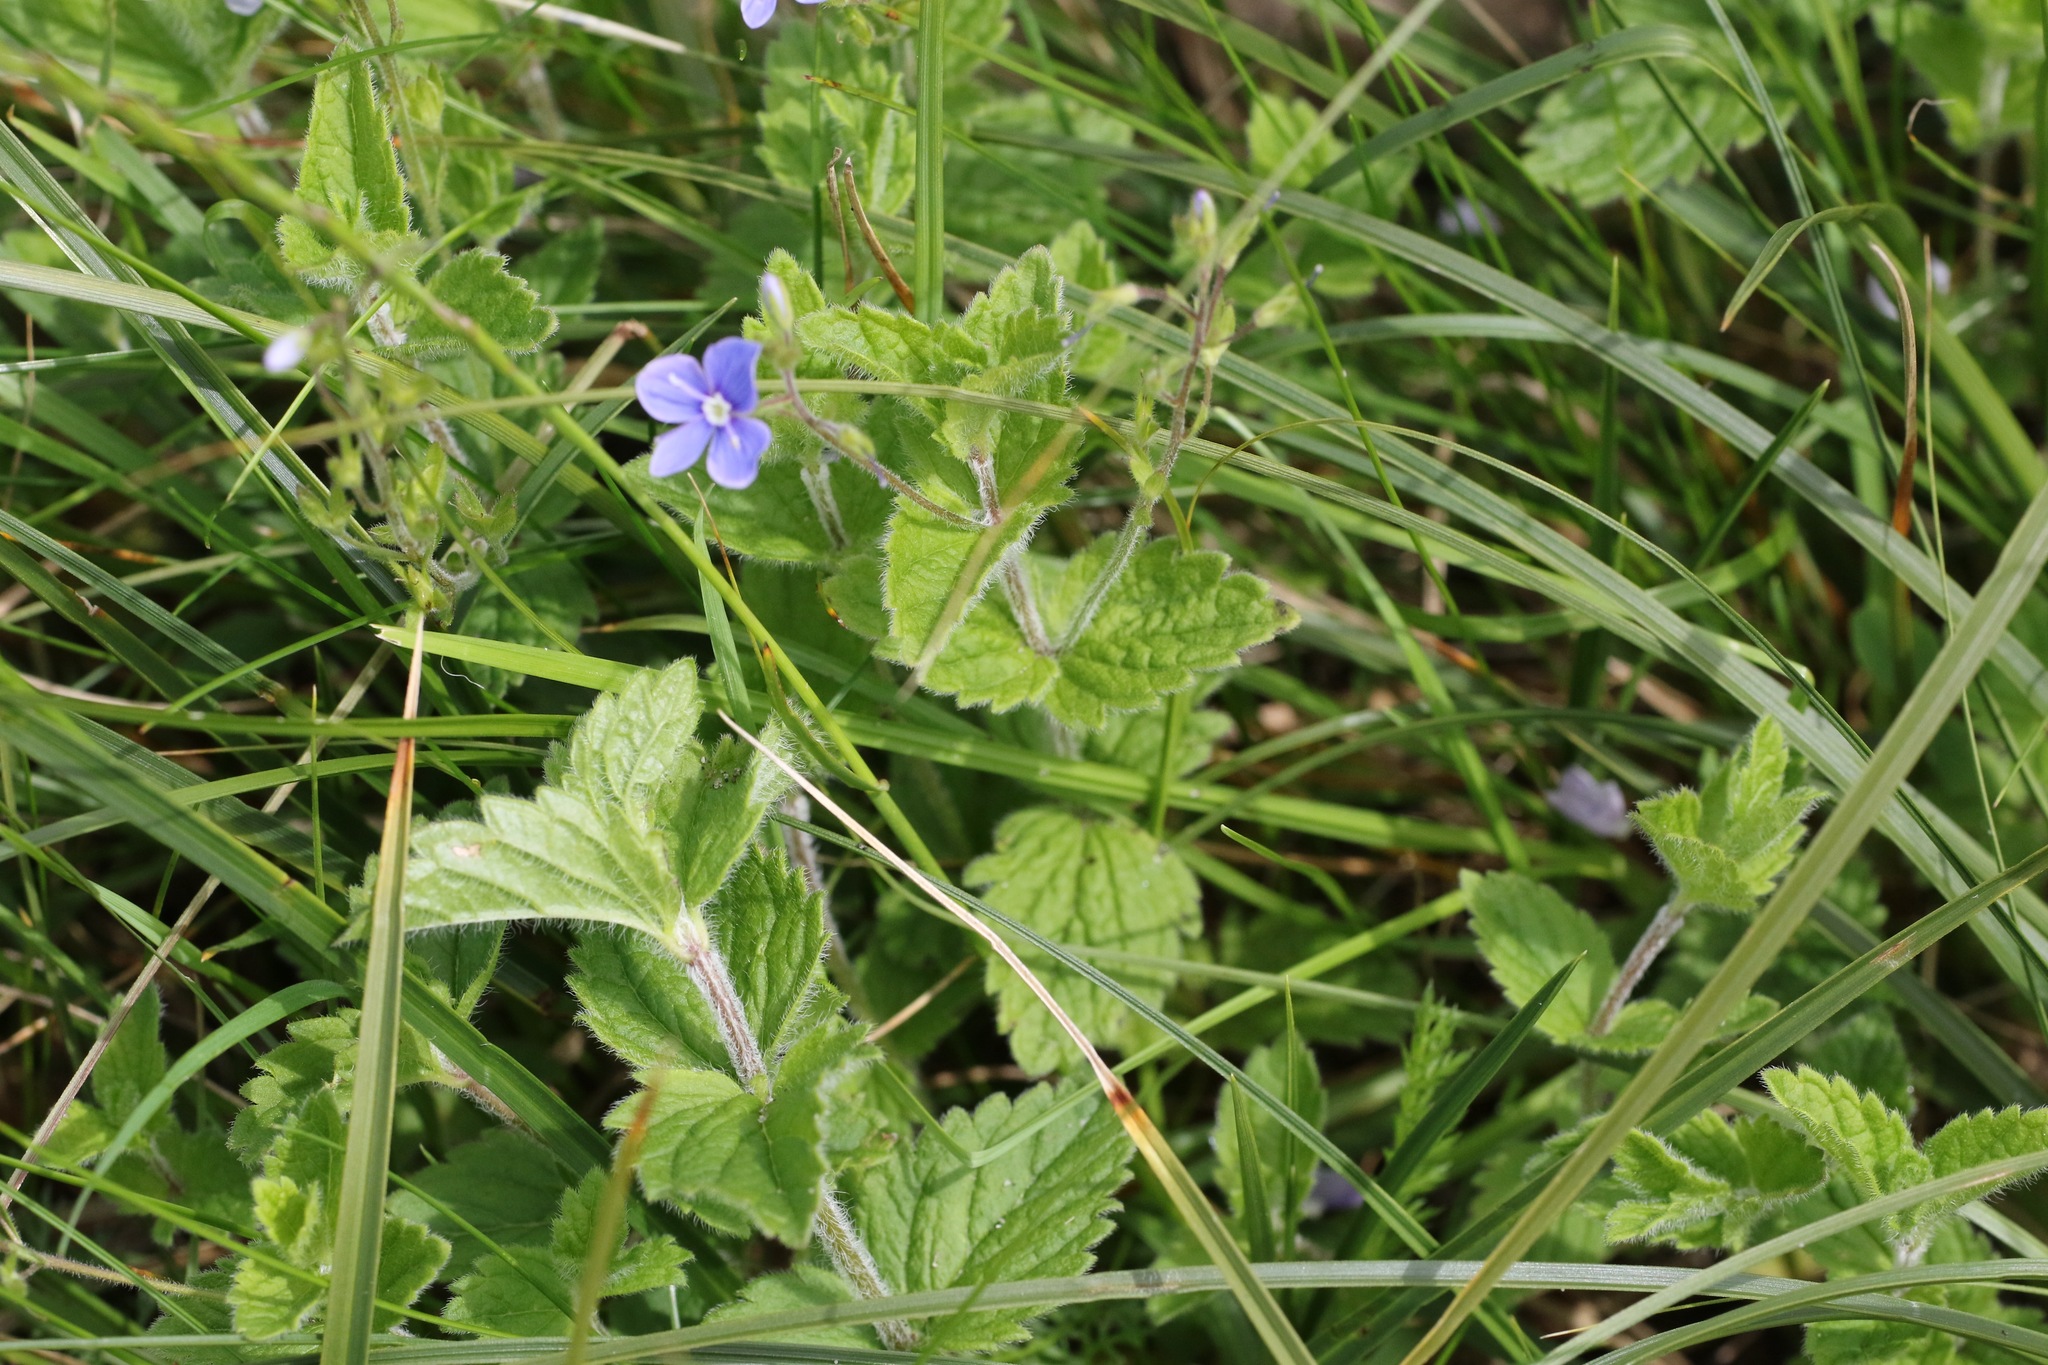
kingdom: Plantae
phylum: Tracheophyta
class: Magnoliopsida
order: Lamiales
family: Plantaginaceae
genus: Veronica
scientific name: Veronica chamaedrys
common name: Germander speedwell
